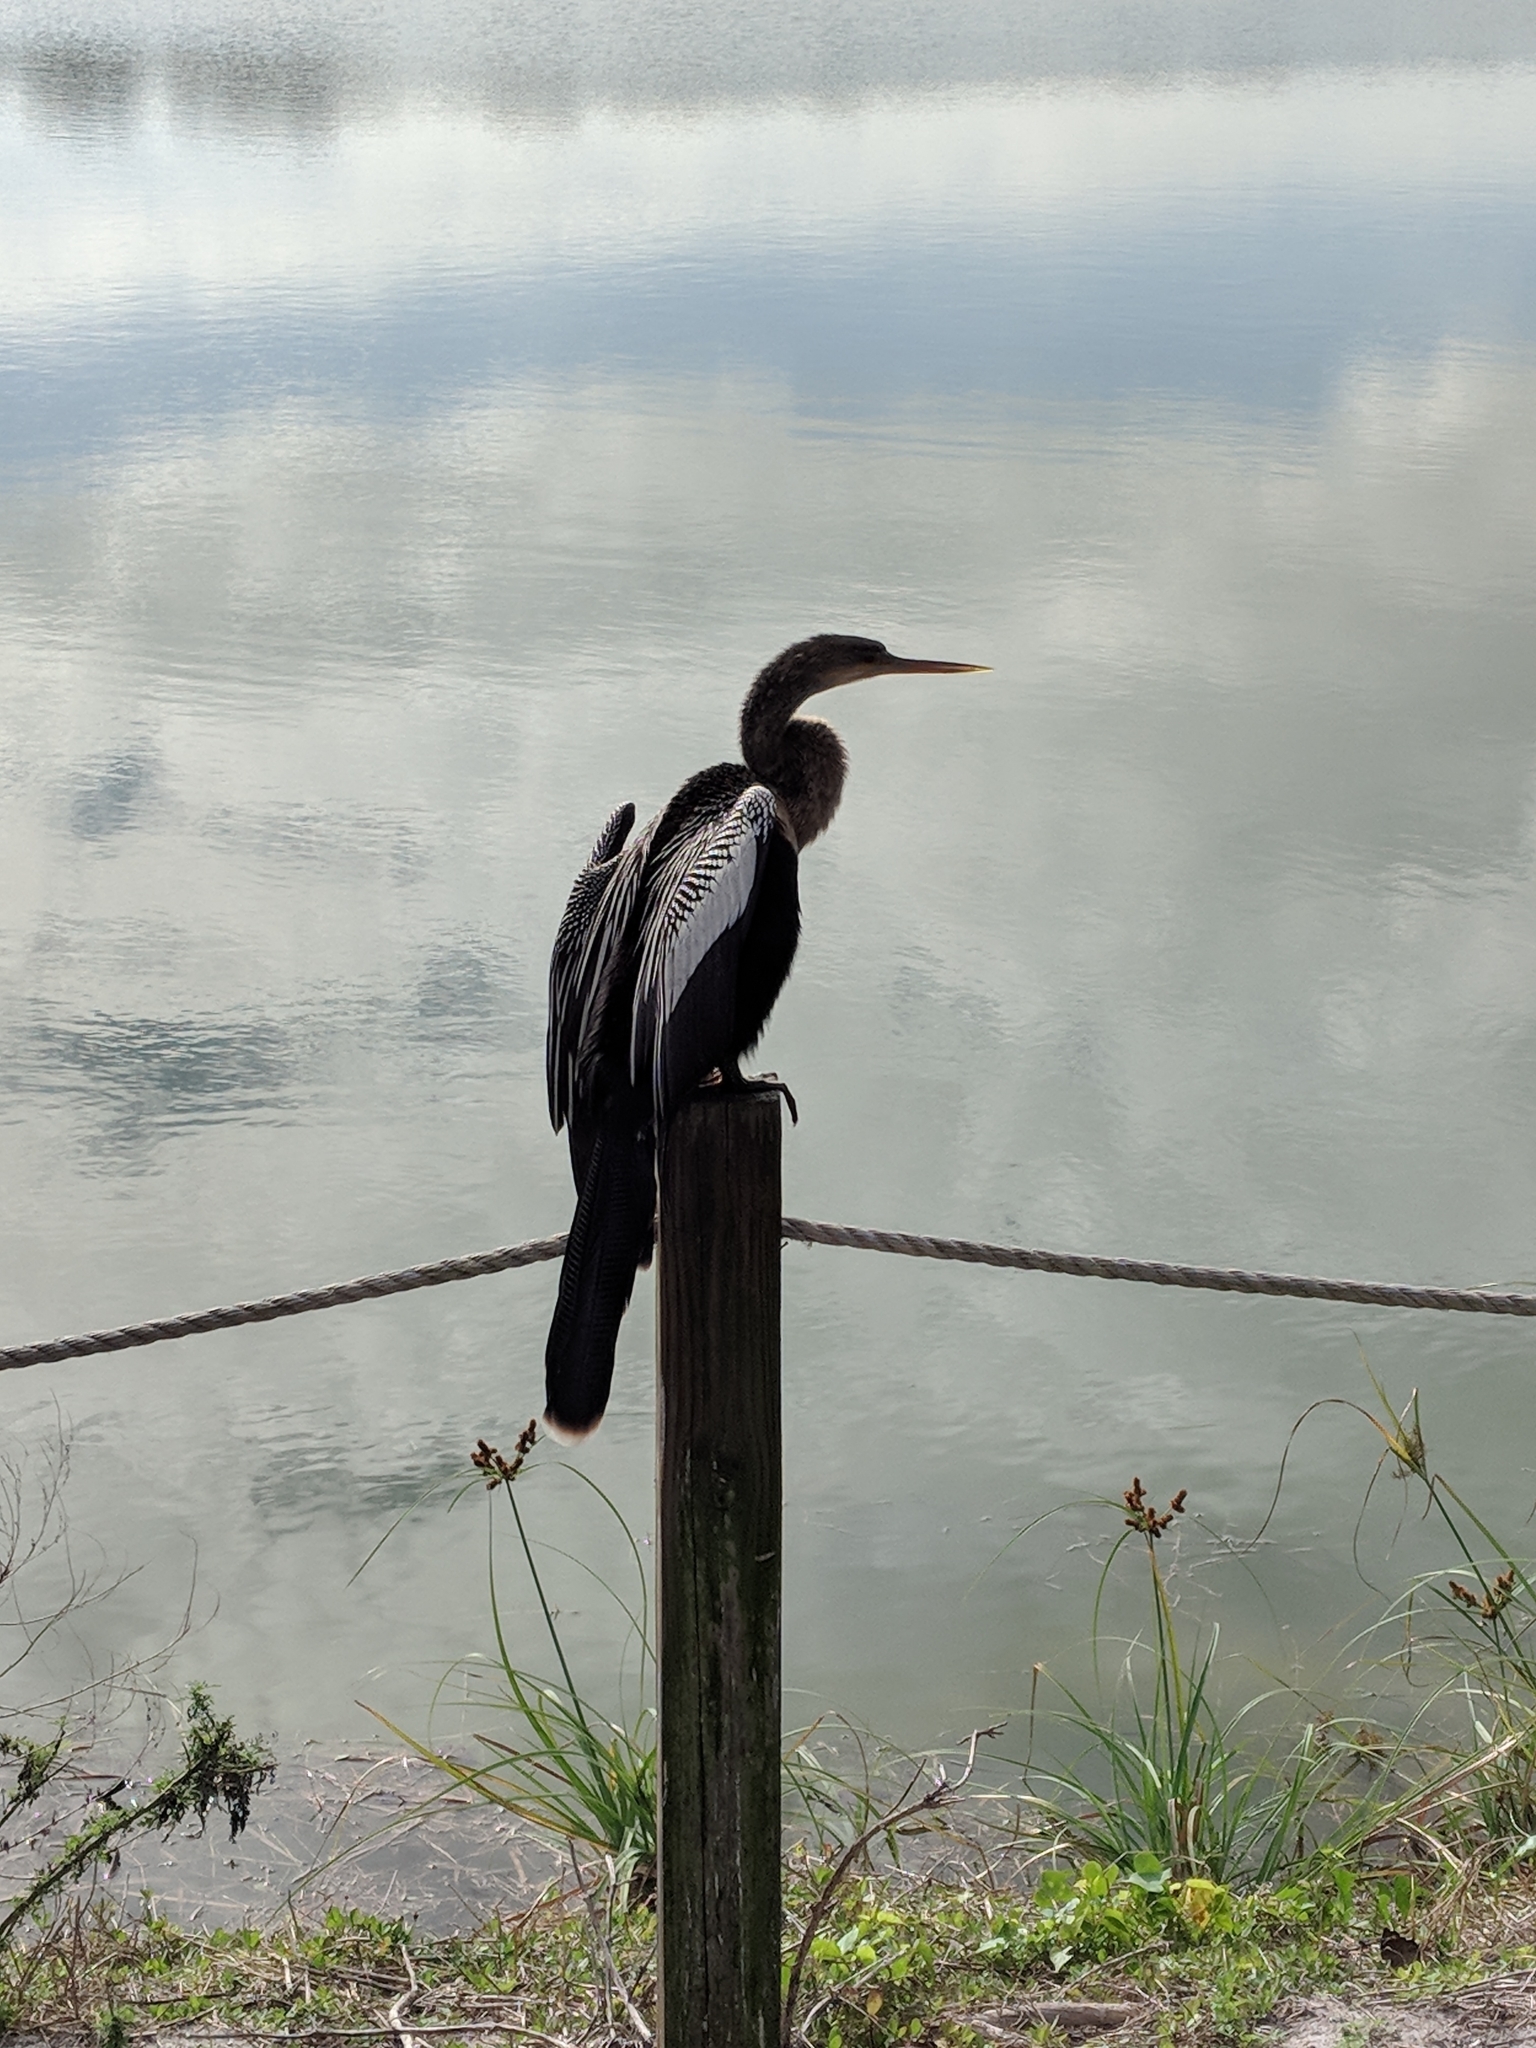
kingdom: Animalia
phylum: Chordata
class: Aves
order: Suliformes
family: Anhingidae
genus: Anhinga
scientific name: Anhinga anhinga
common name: Anhinga
